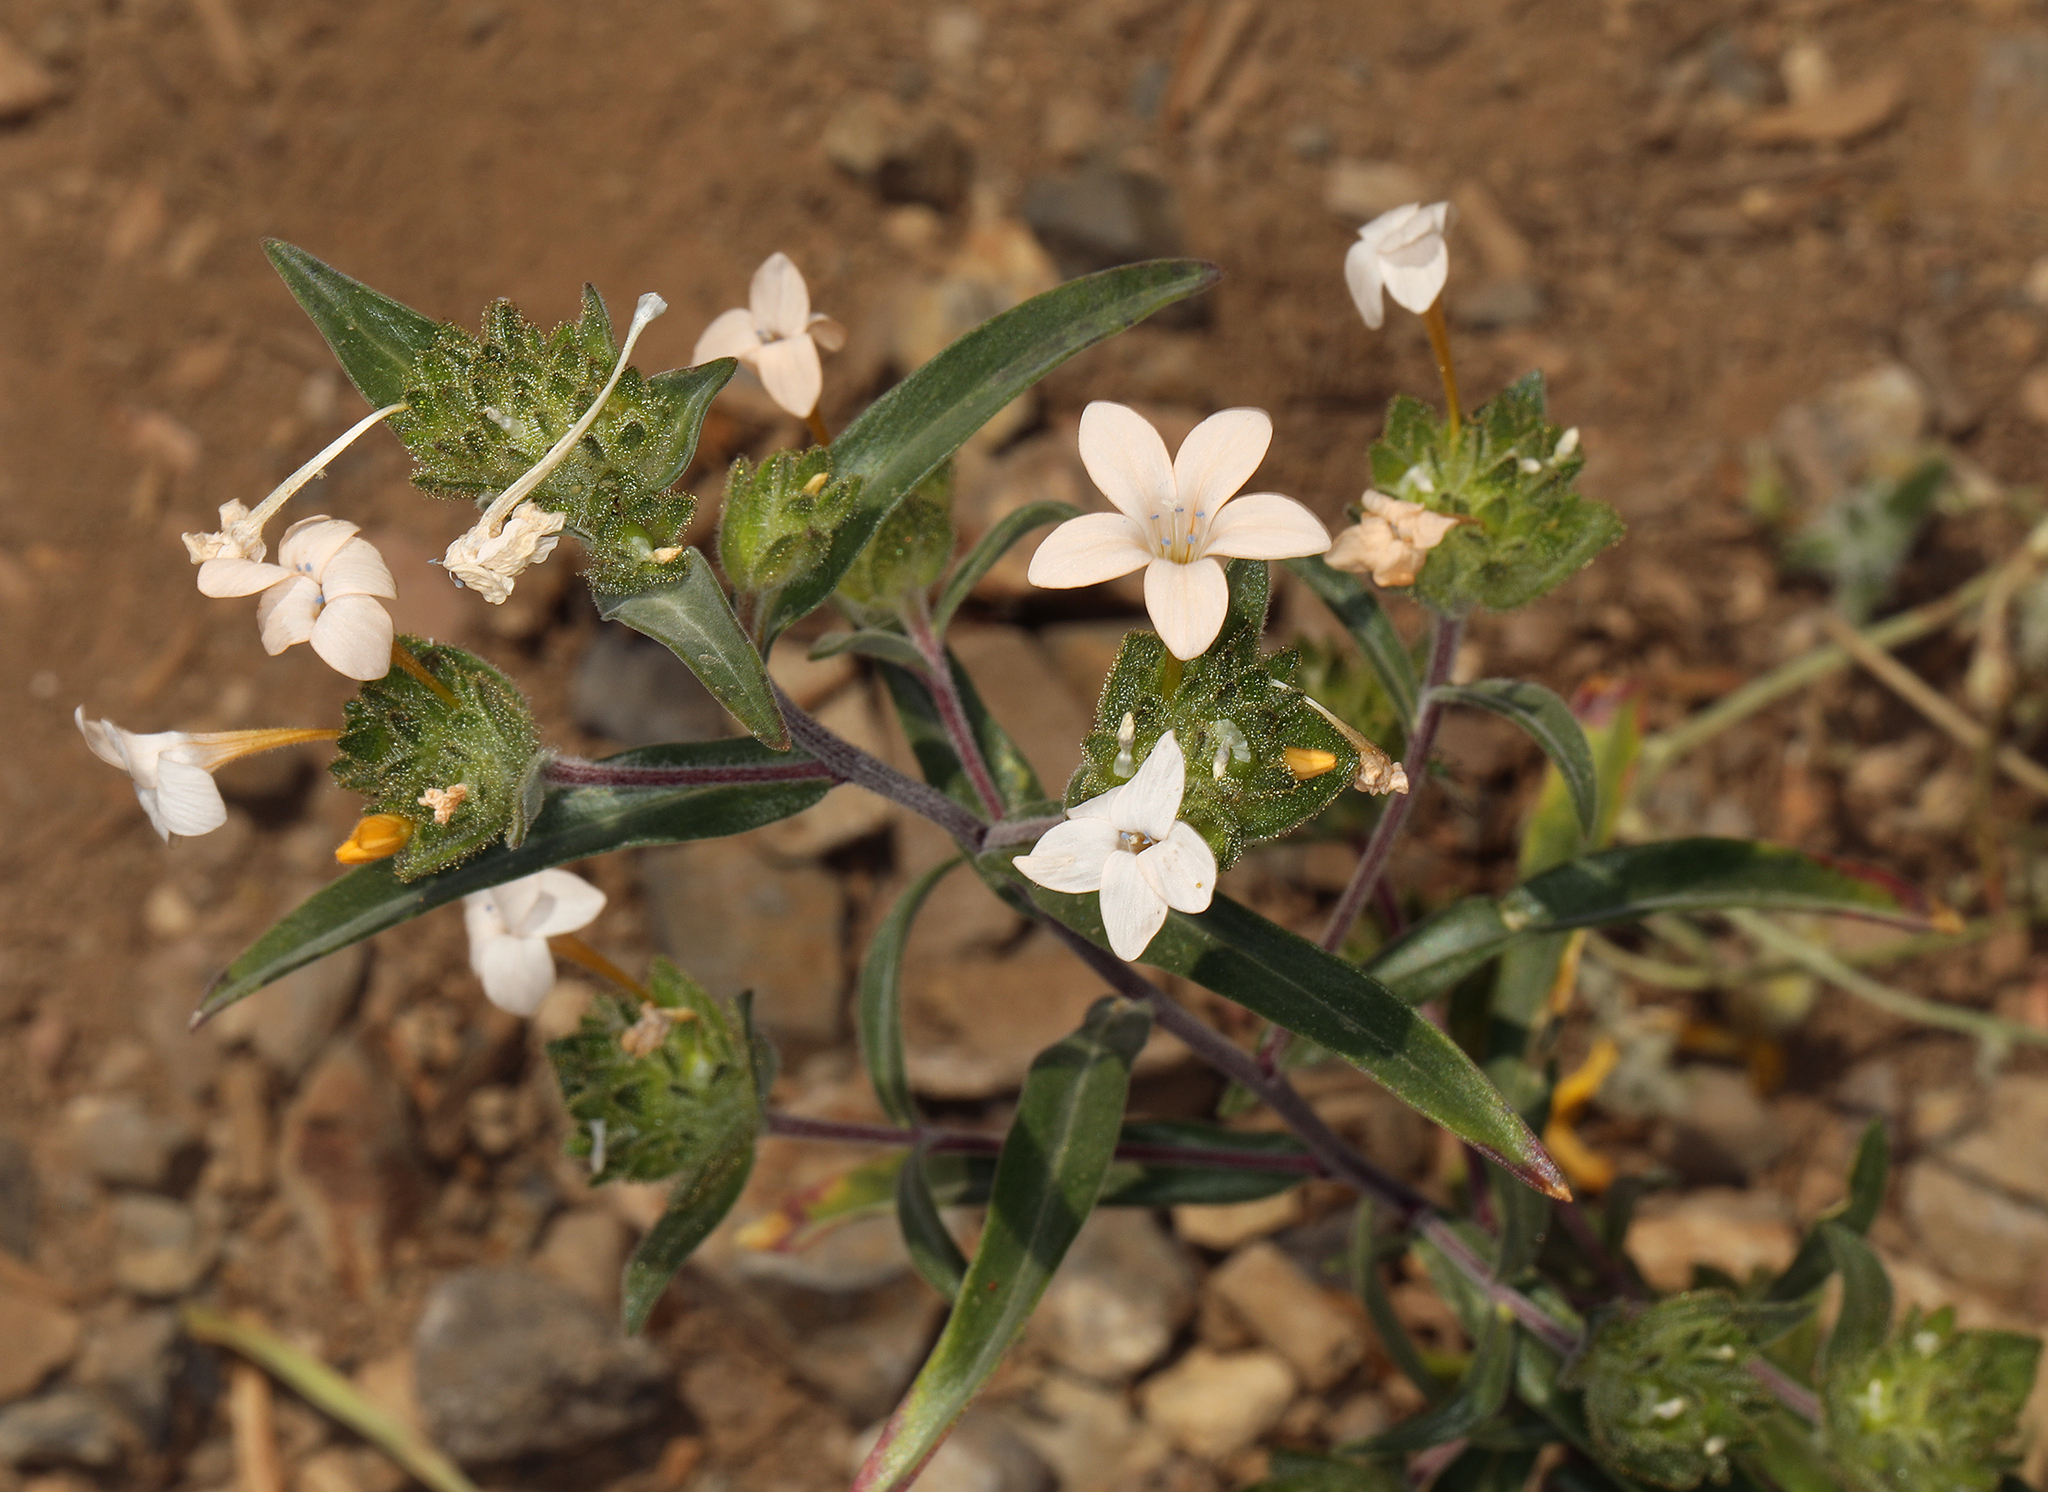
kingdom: Plantae
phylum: Tracheophyta
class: Magnoliopsida
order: Ericales
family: Polemoniaceae
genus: Collomia
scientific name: Collomia grandiflora
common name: California strawflower
